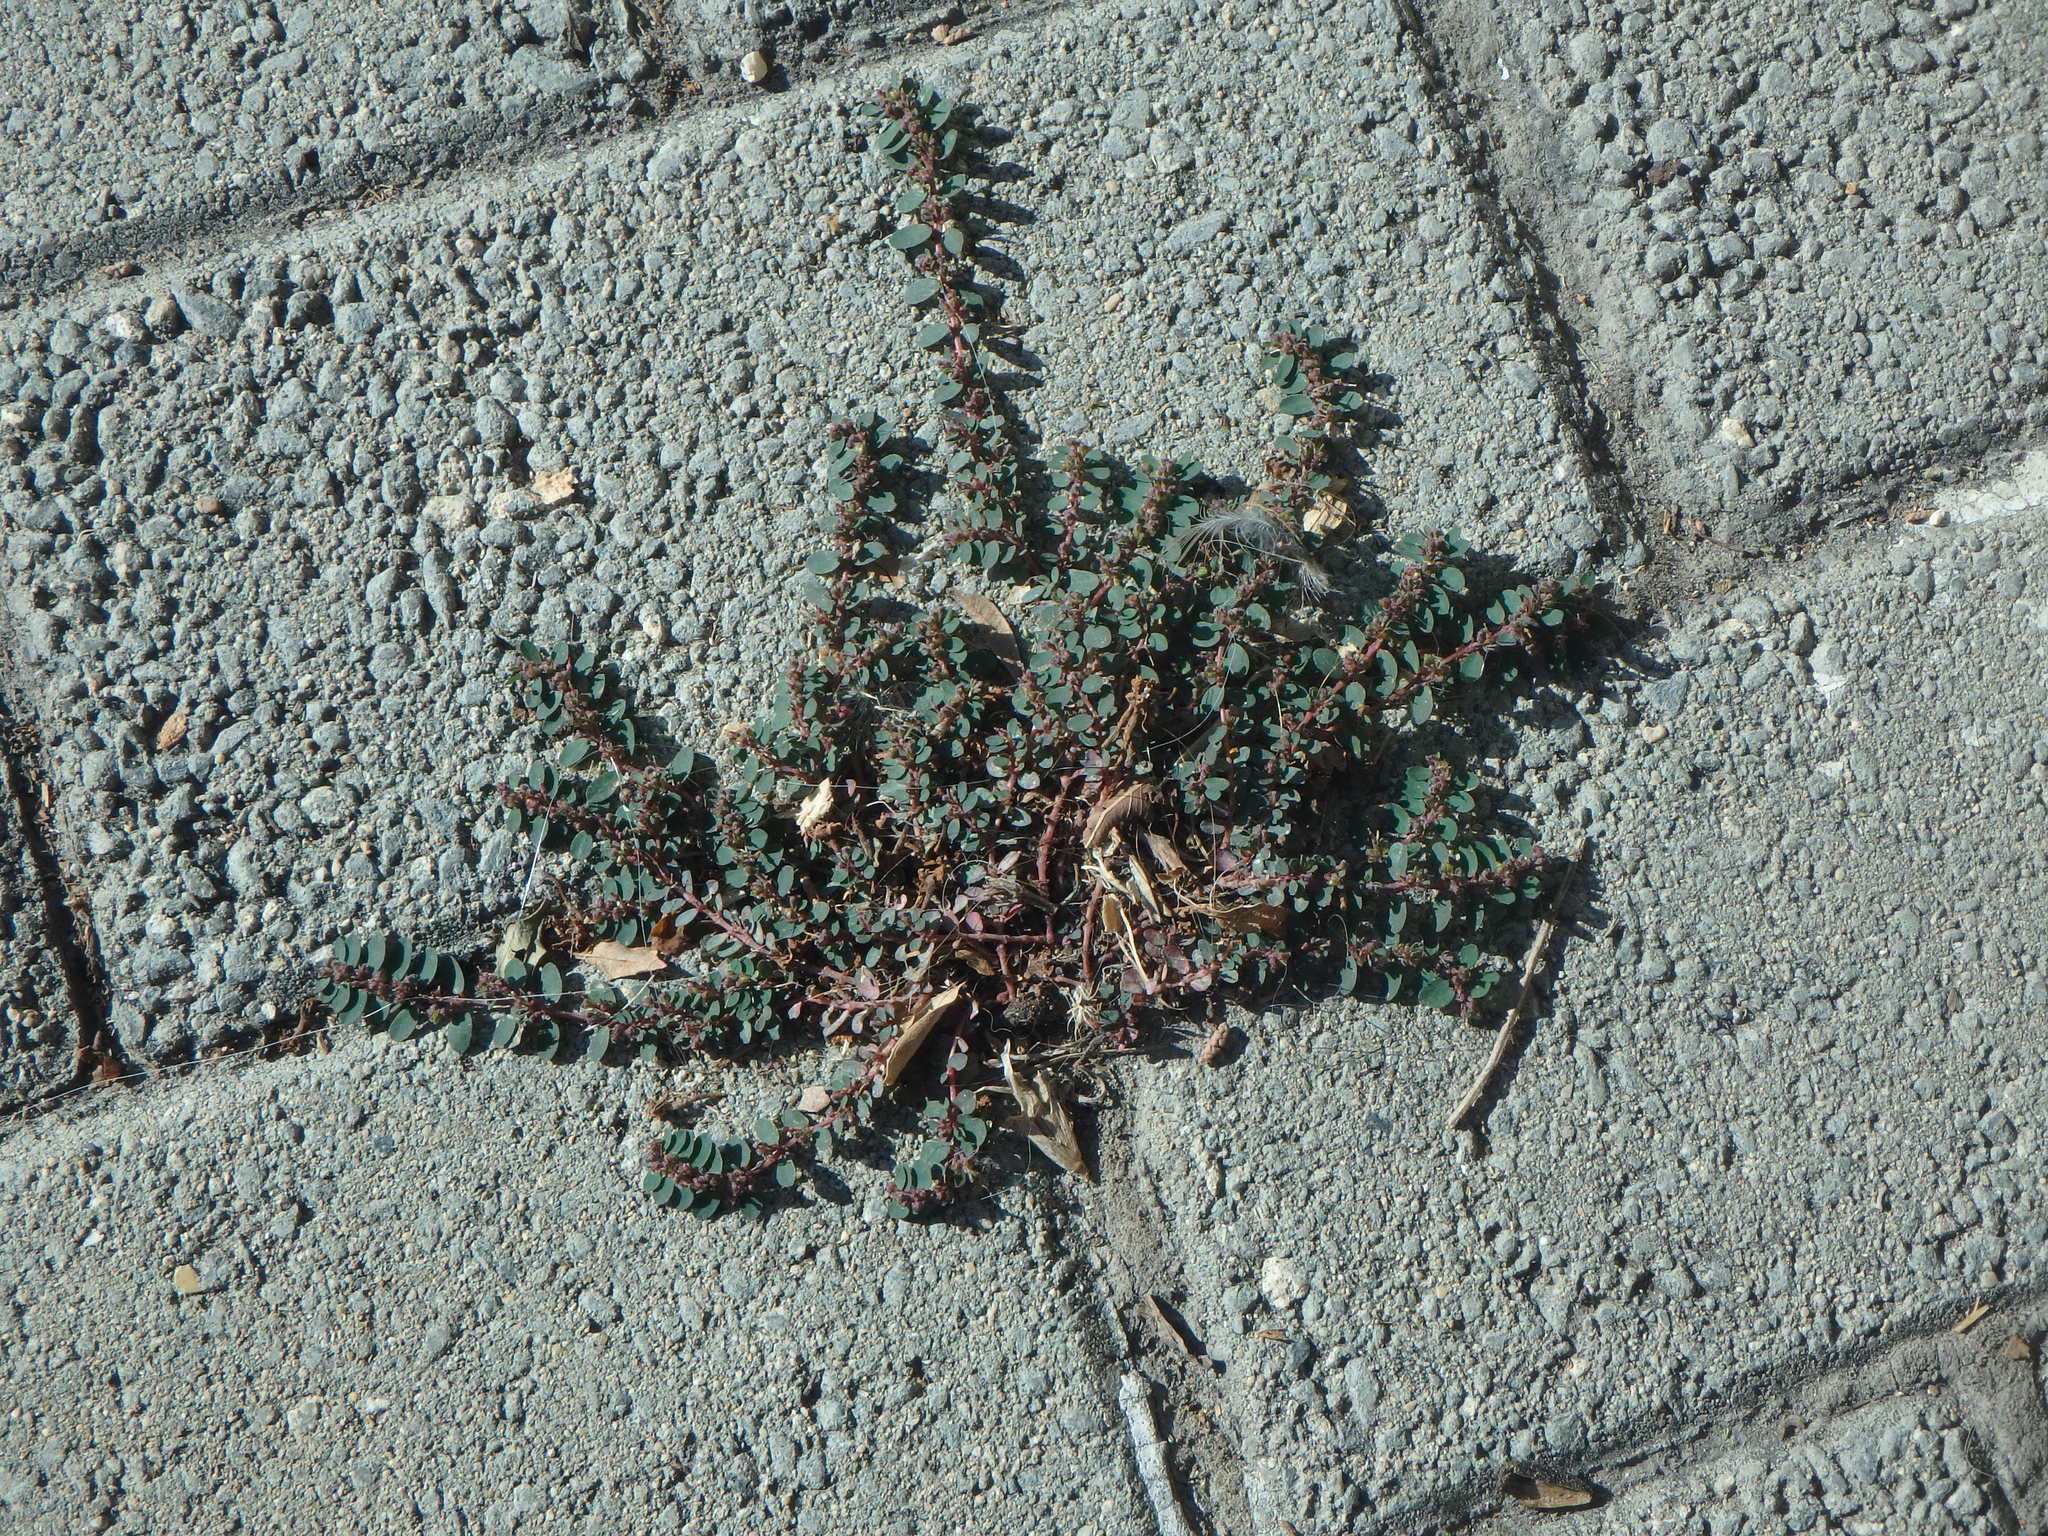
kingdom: Plantae
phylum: Tracheophyta
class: Magnoliopsida
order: Malpighiales
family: Euphorbiaceae
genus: Euphorbia
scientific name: Euphorbia prostrata
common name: Prostrate sandmat
